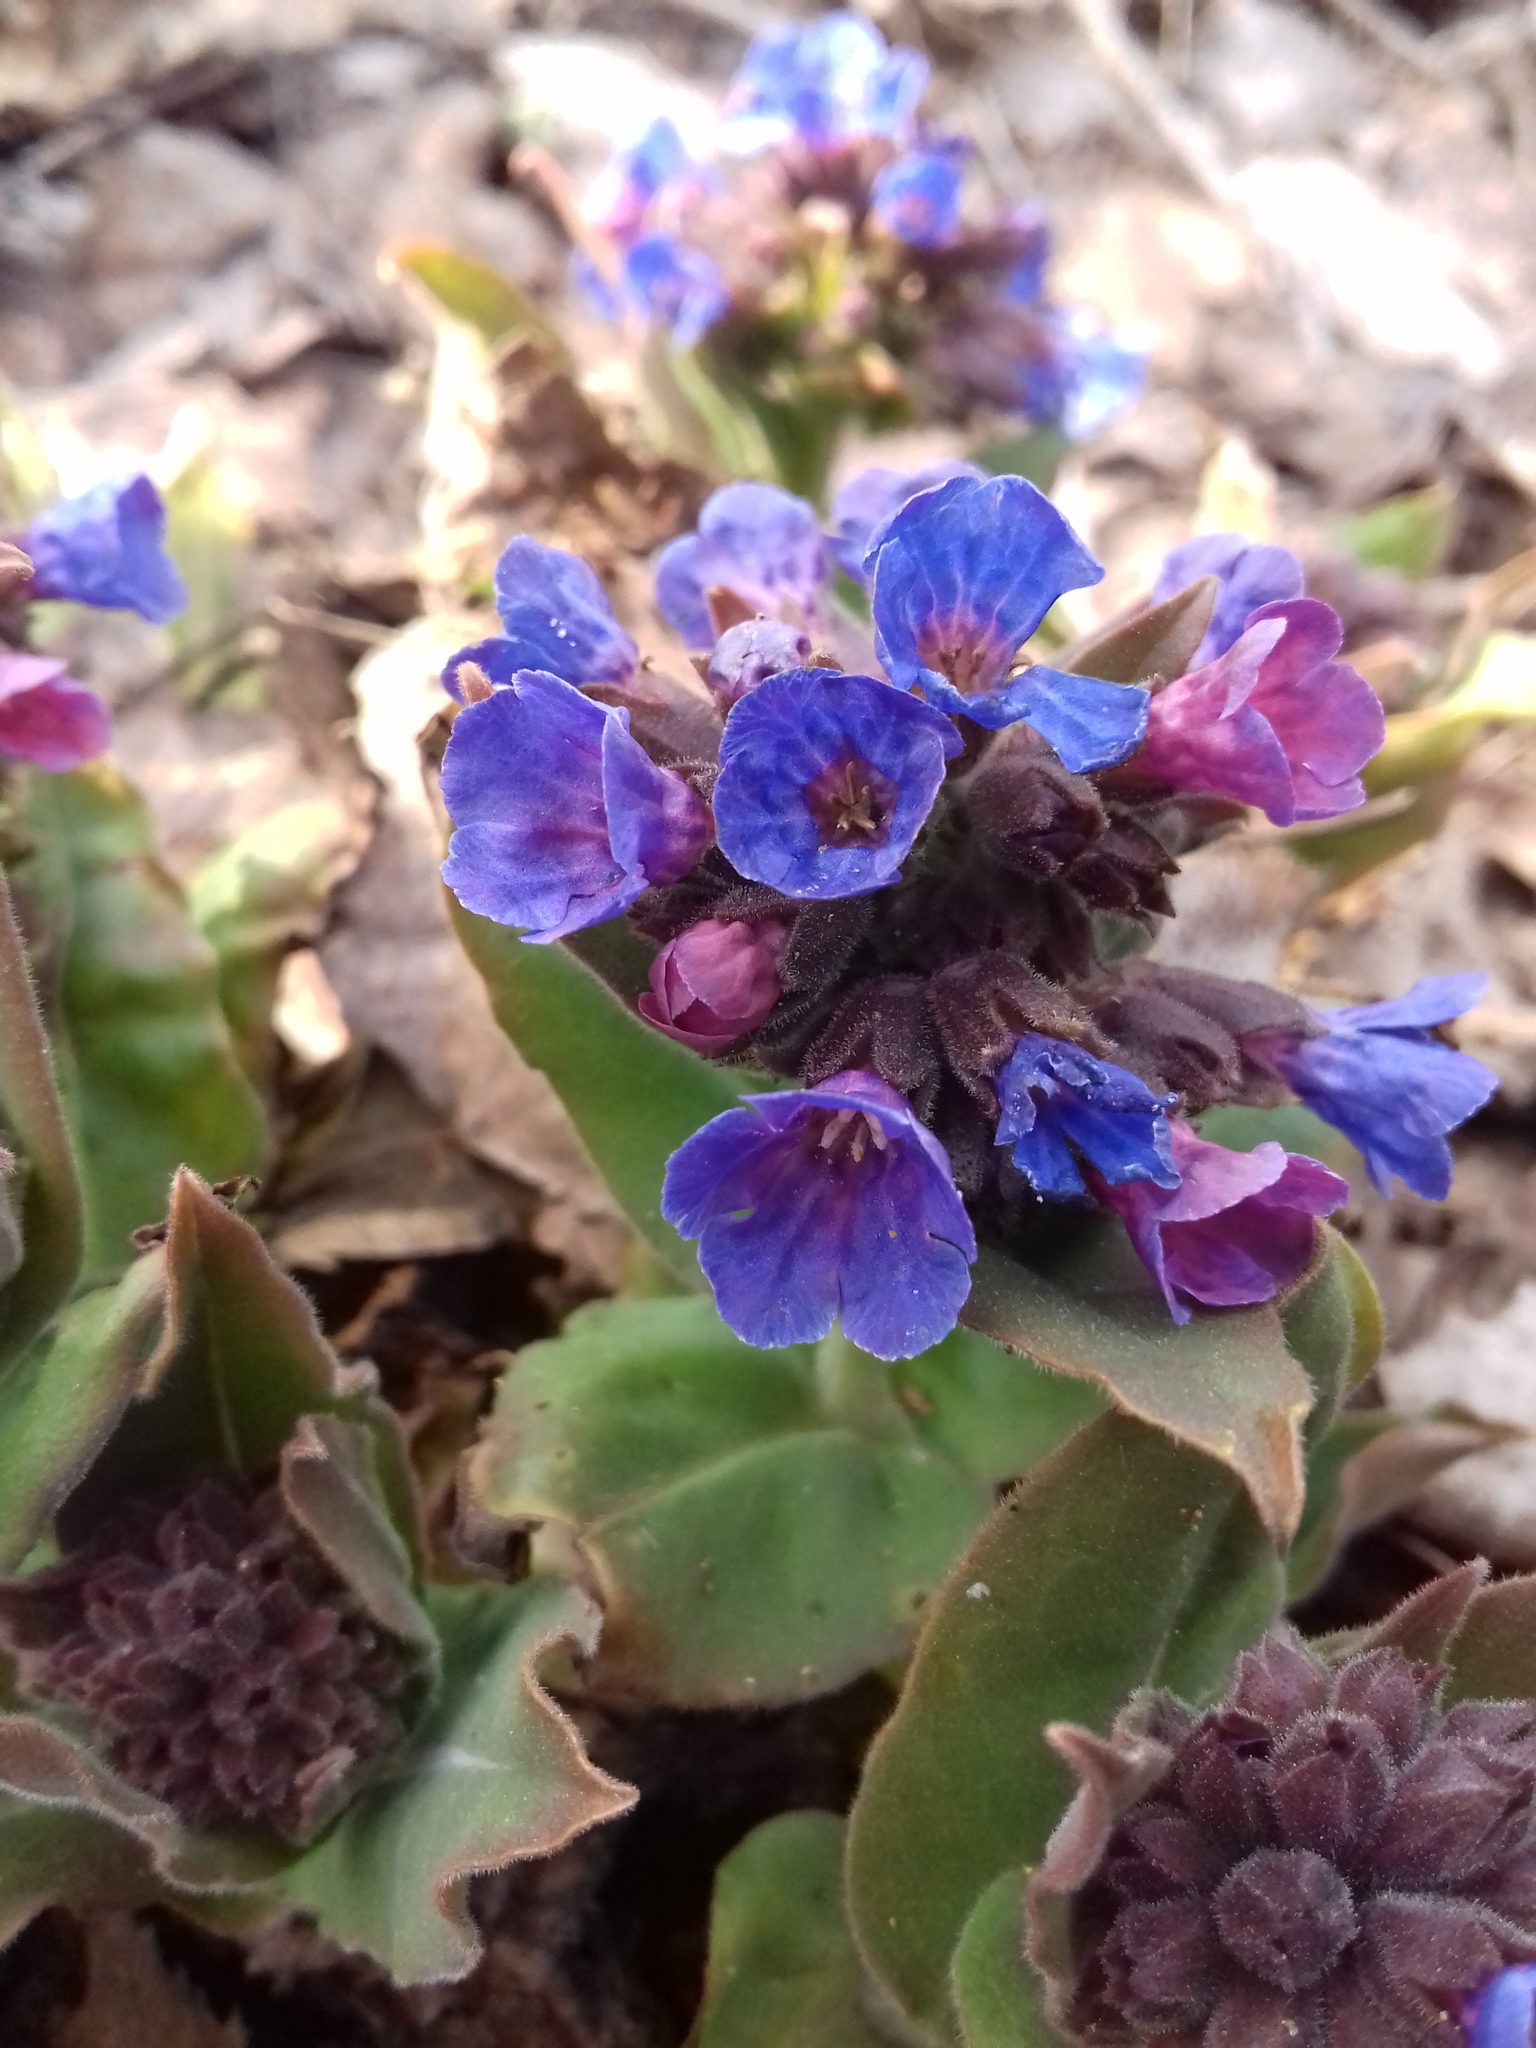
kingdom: Plantae
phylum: Tracheophyta
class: Magnoliopsida
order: Boraginales
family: Boraginaceae
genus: Pulmonaria
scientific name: Pulmonaria mollis
